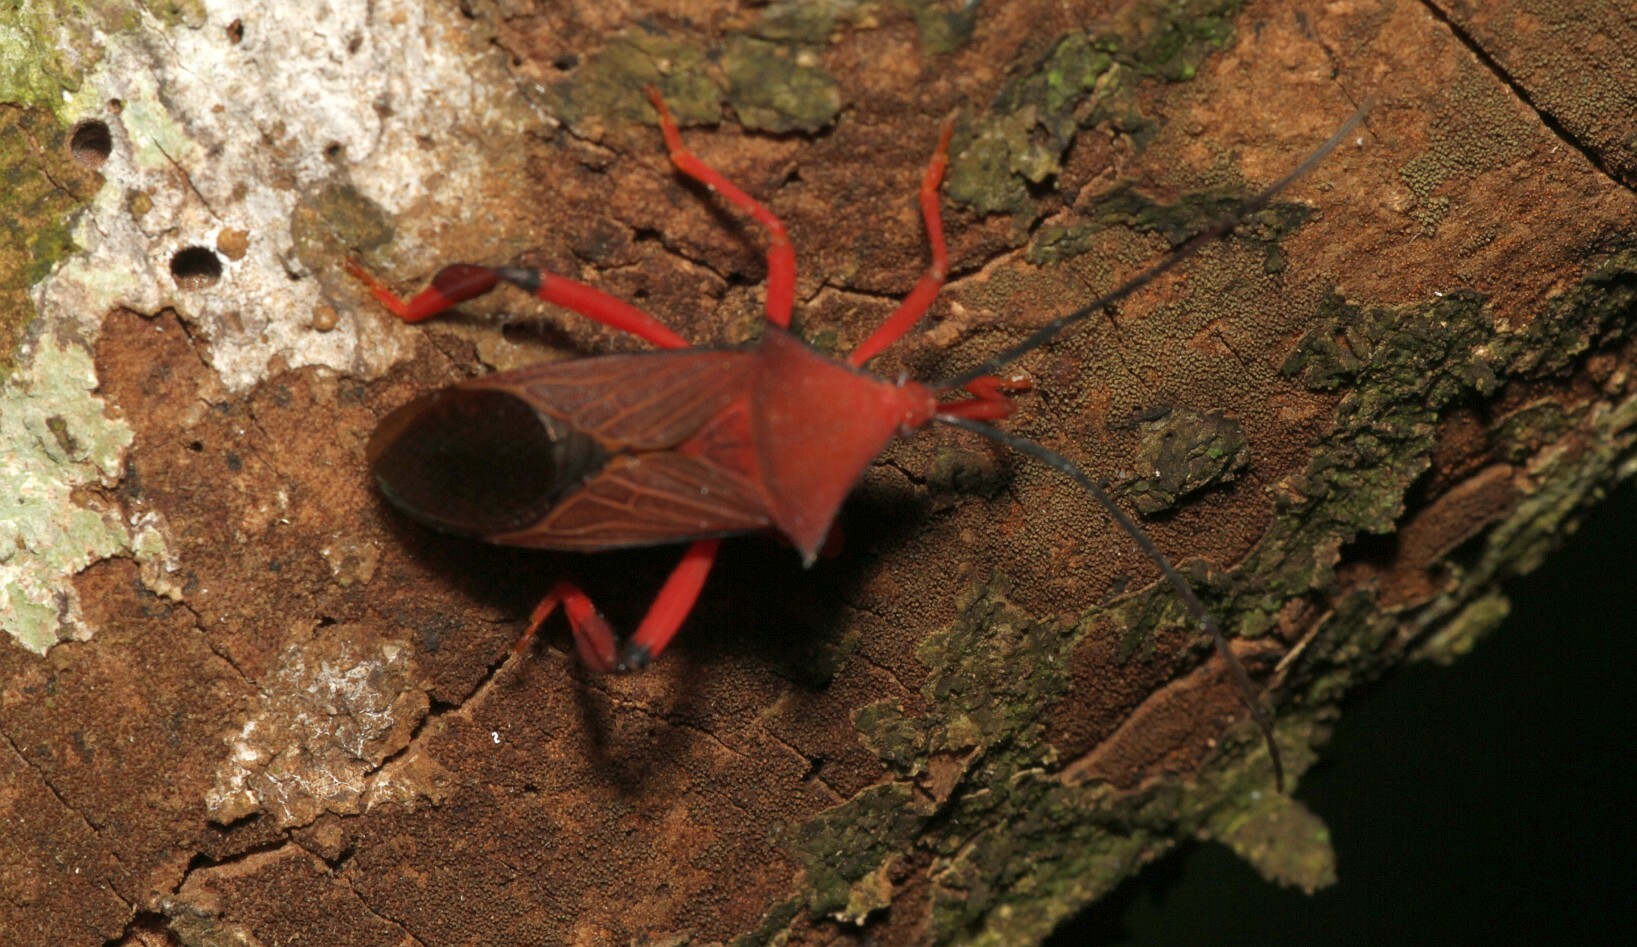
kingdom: Animalia
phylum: Arthropoda
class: Insecta
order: Hemiptera
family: Coreidae
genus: Melucha
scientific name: Melucha acutispina
